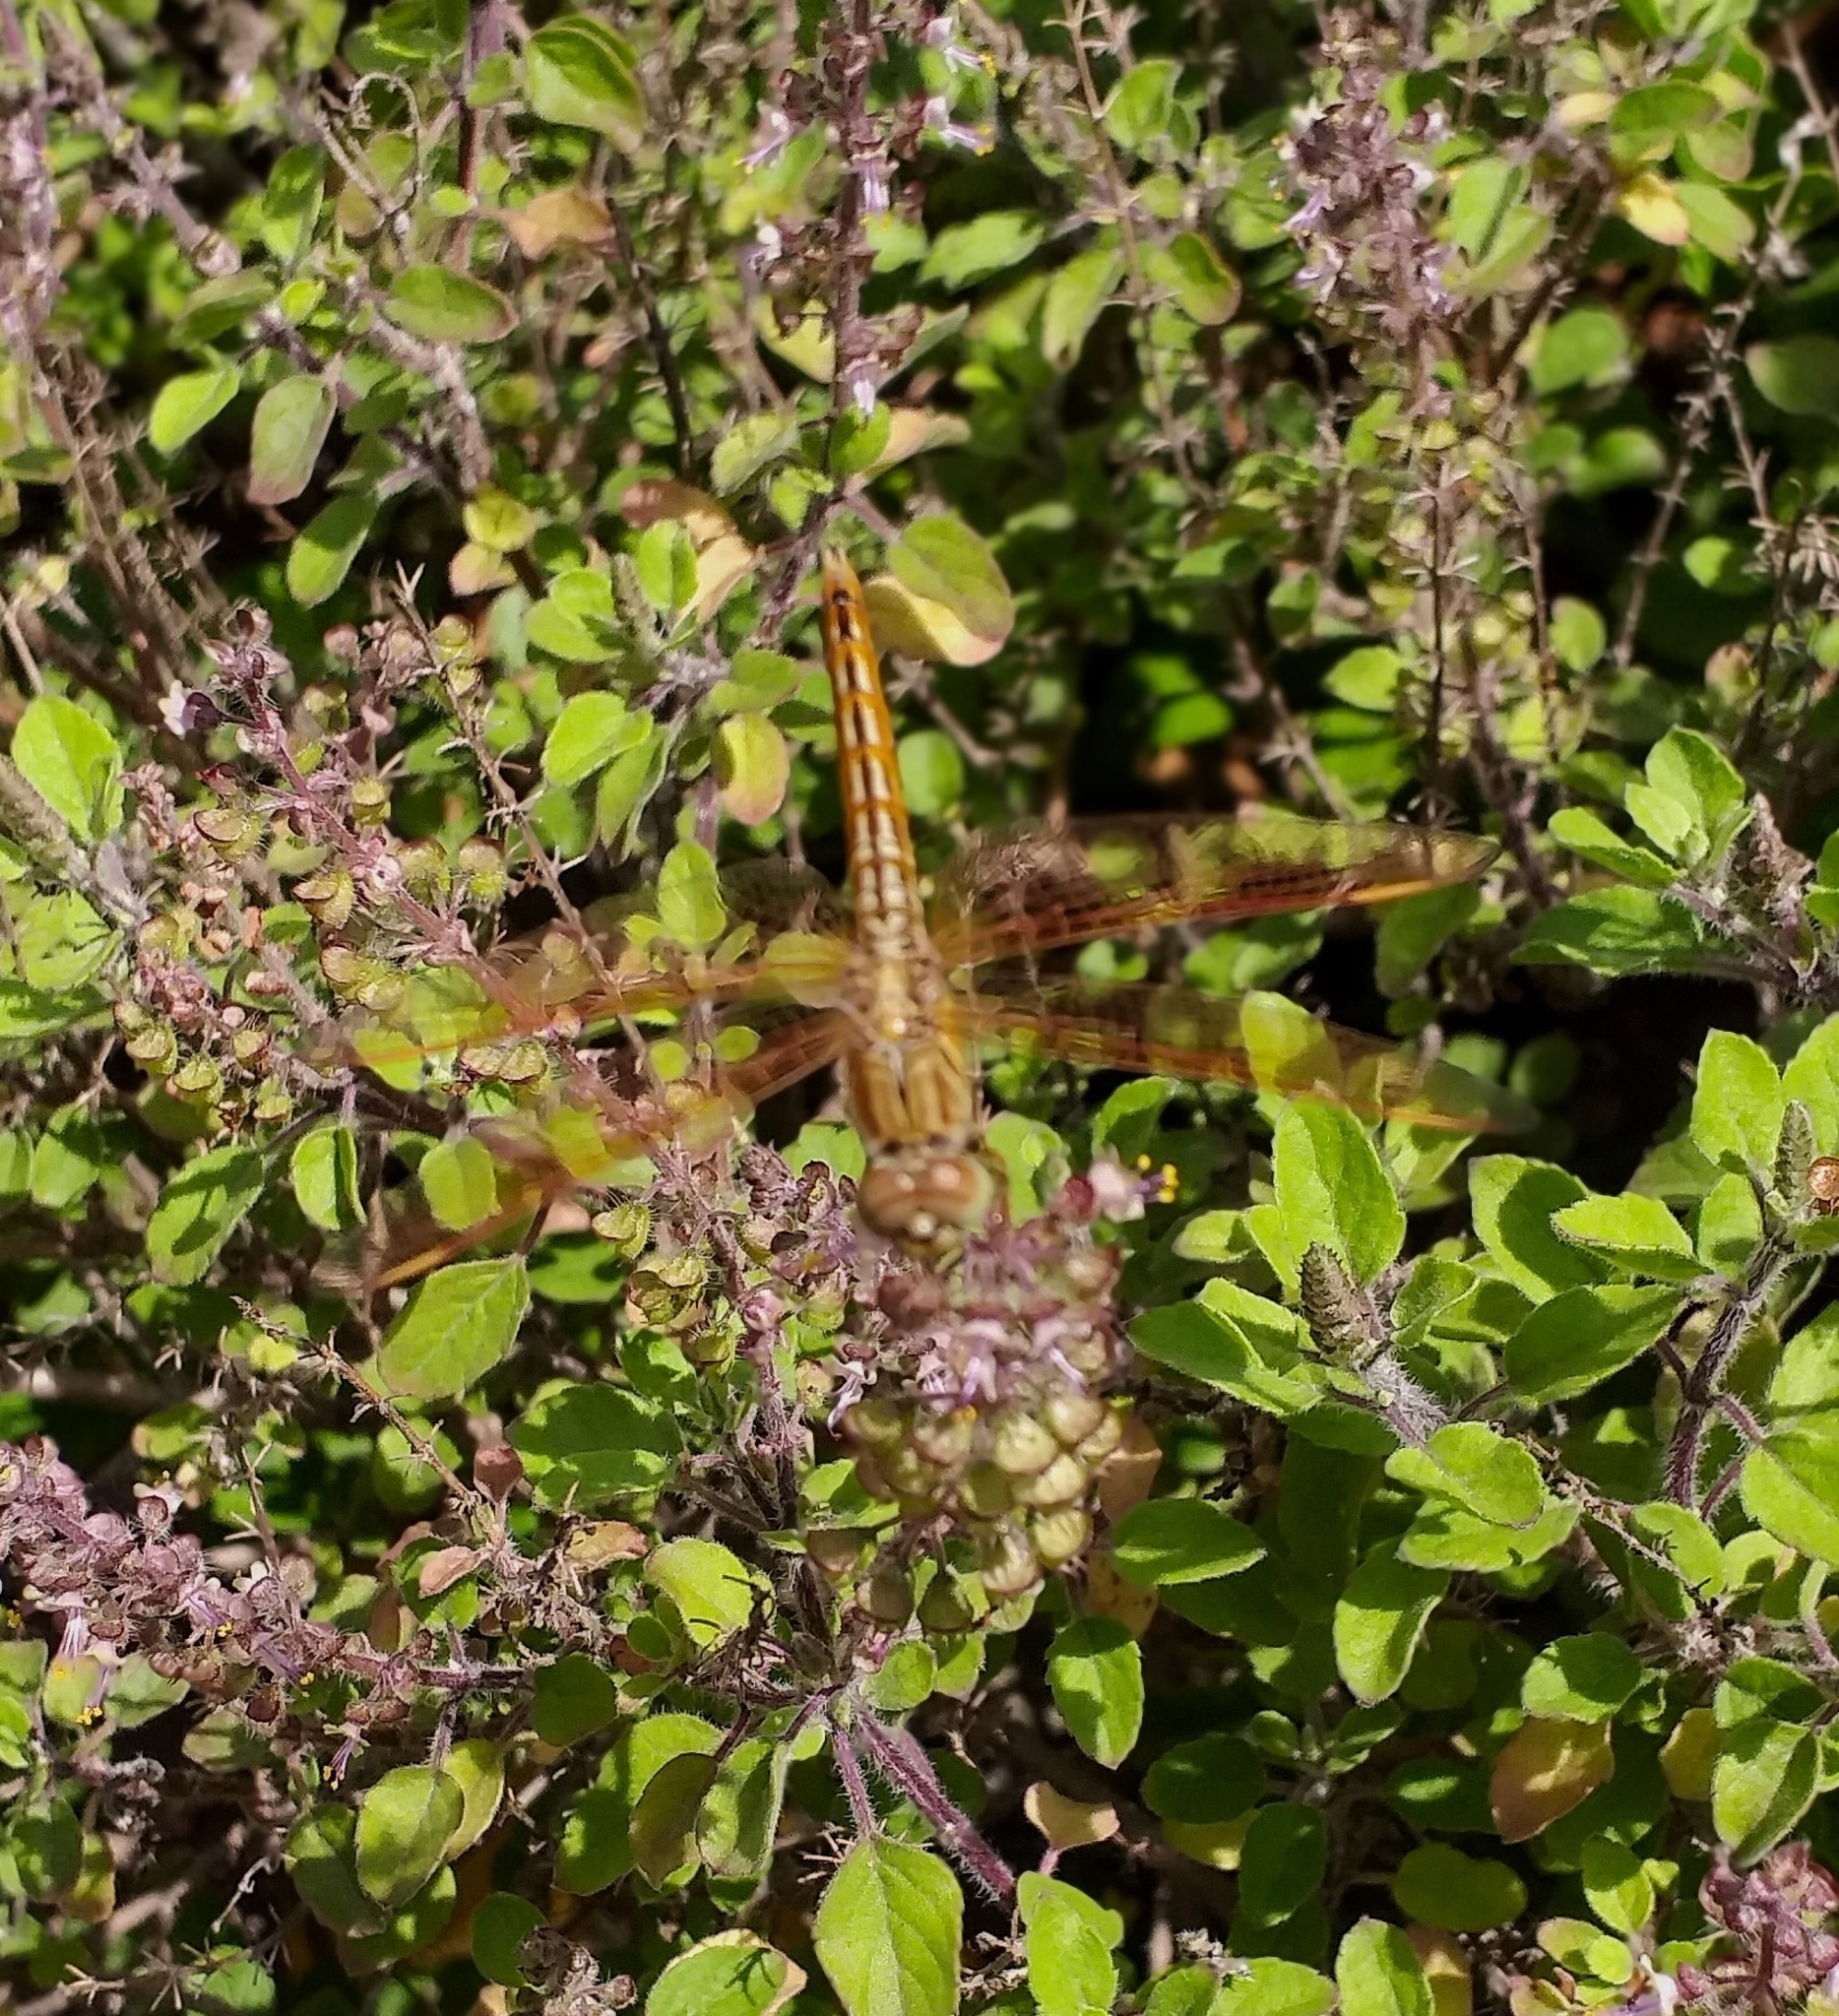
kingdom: Animalia
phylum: Arthropoda
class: Insecta
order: Odonata
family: Libellulidae
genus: Brachythemis
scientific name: Brachythemis contaminata
